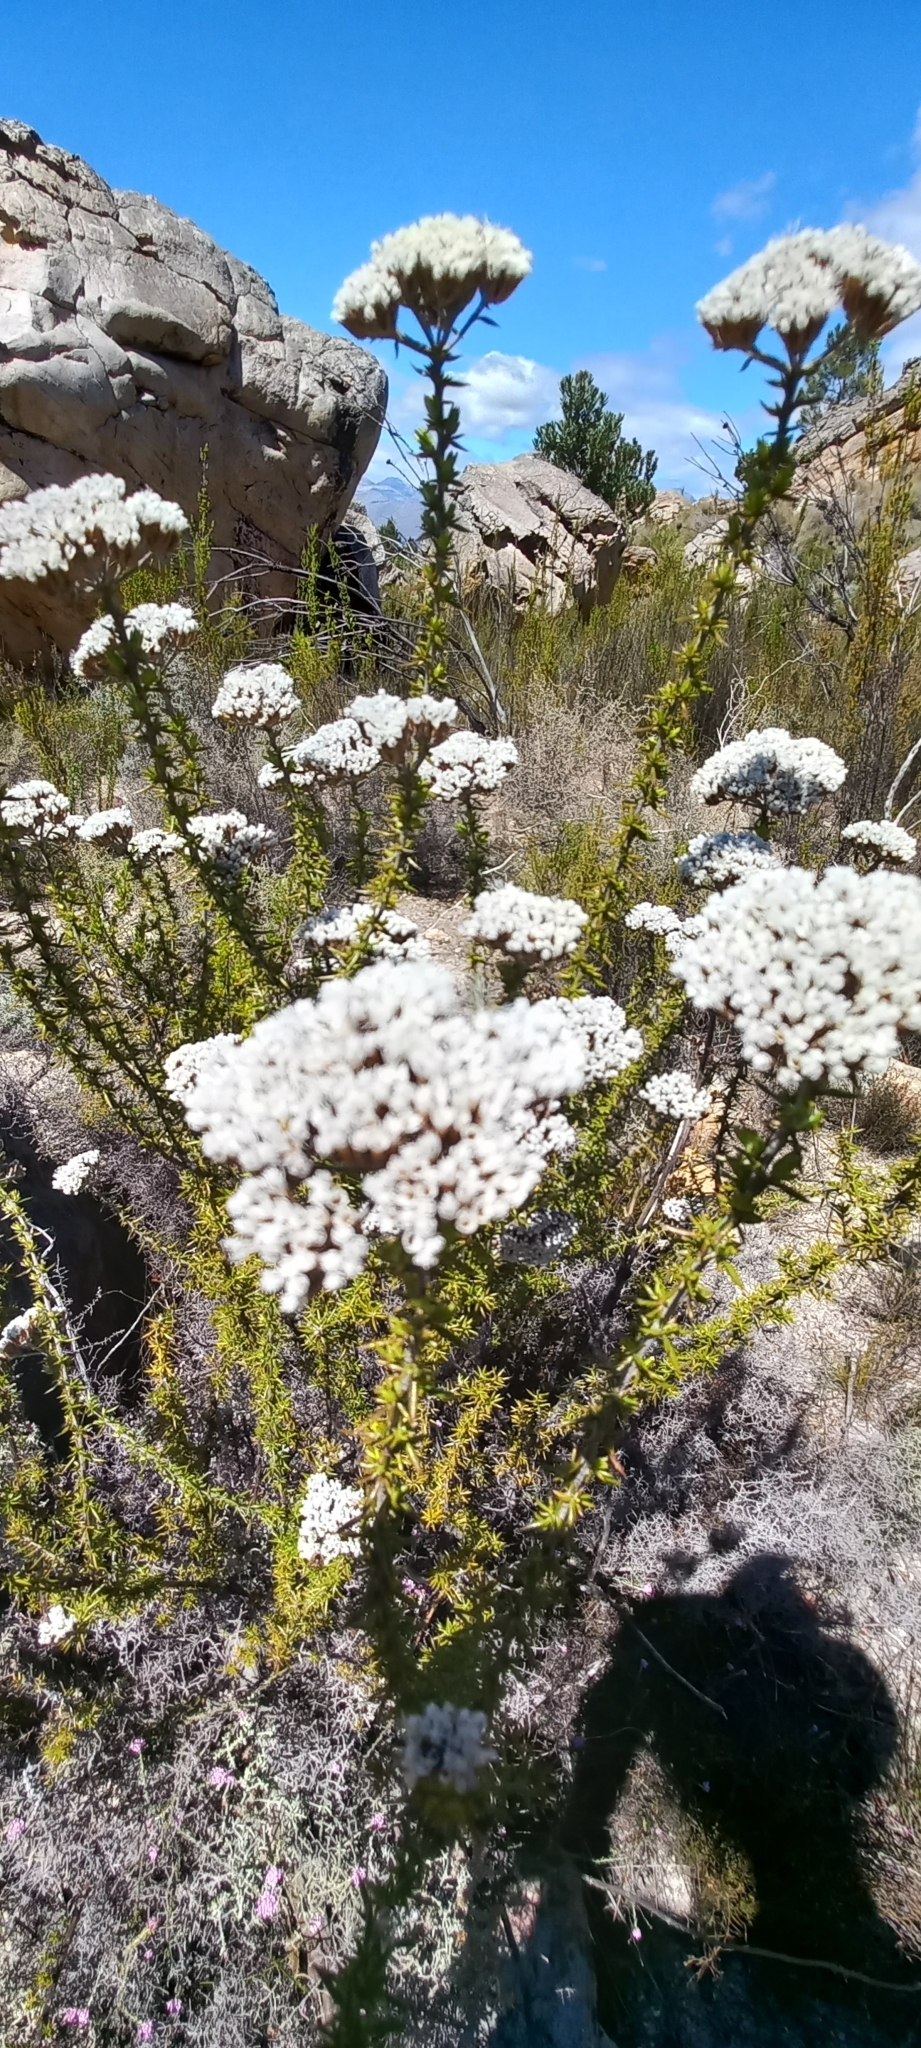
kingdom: Plantae
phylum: Tracheophyta
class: Magnoliopsida
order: Asterales
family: Asteraceae
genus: Metalasia
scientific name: Metalasia densa
